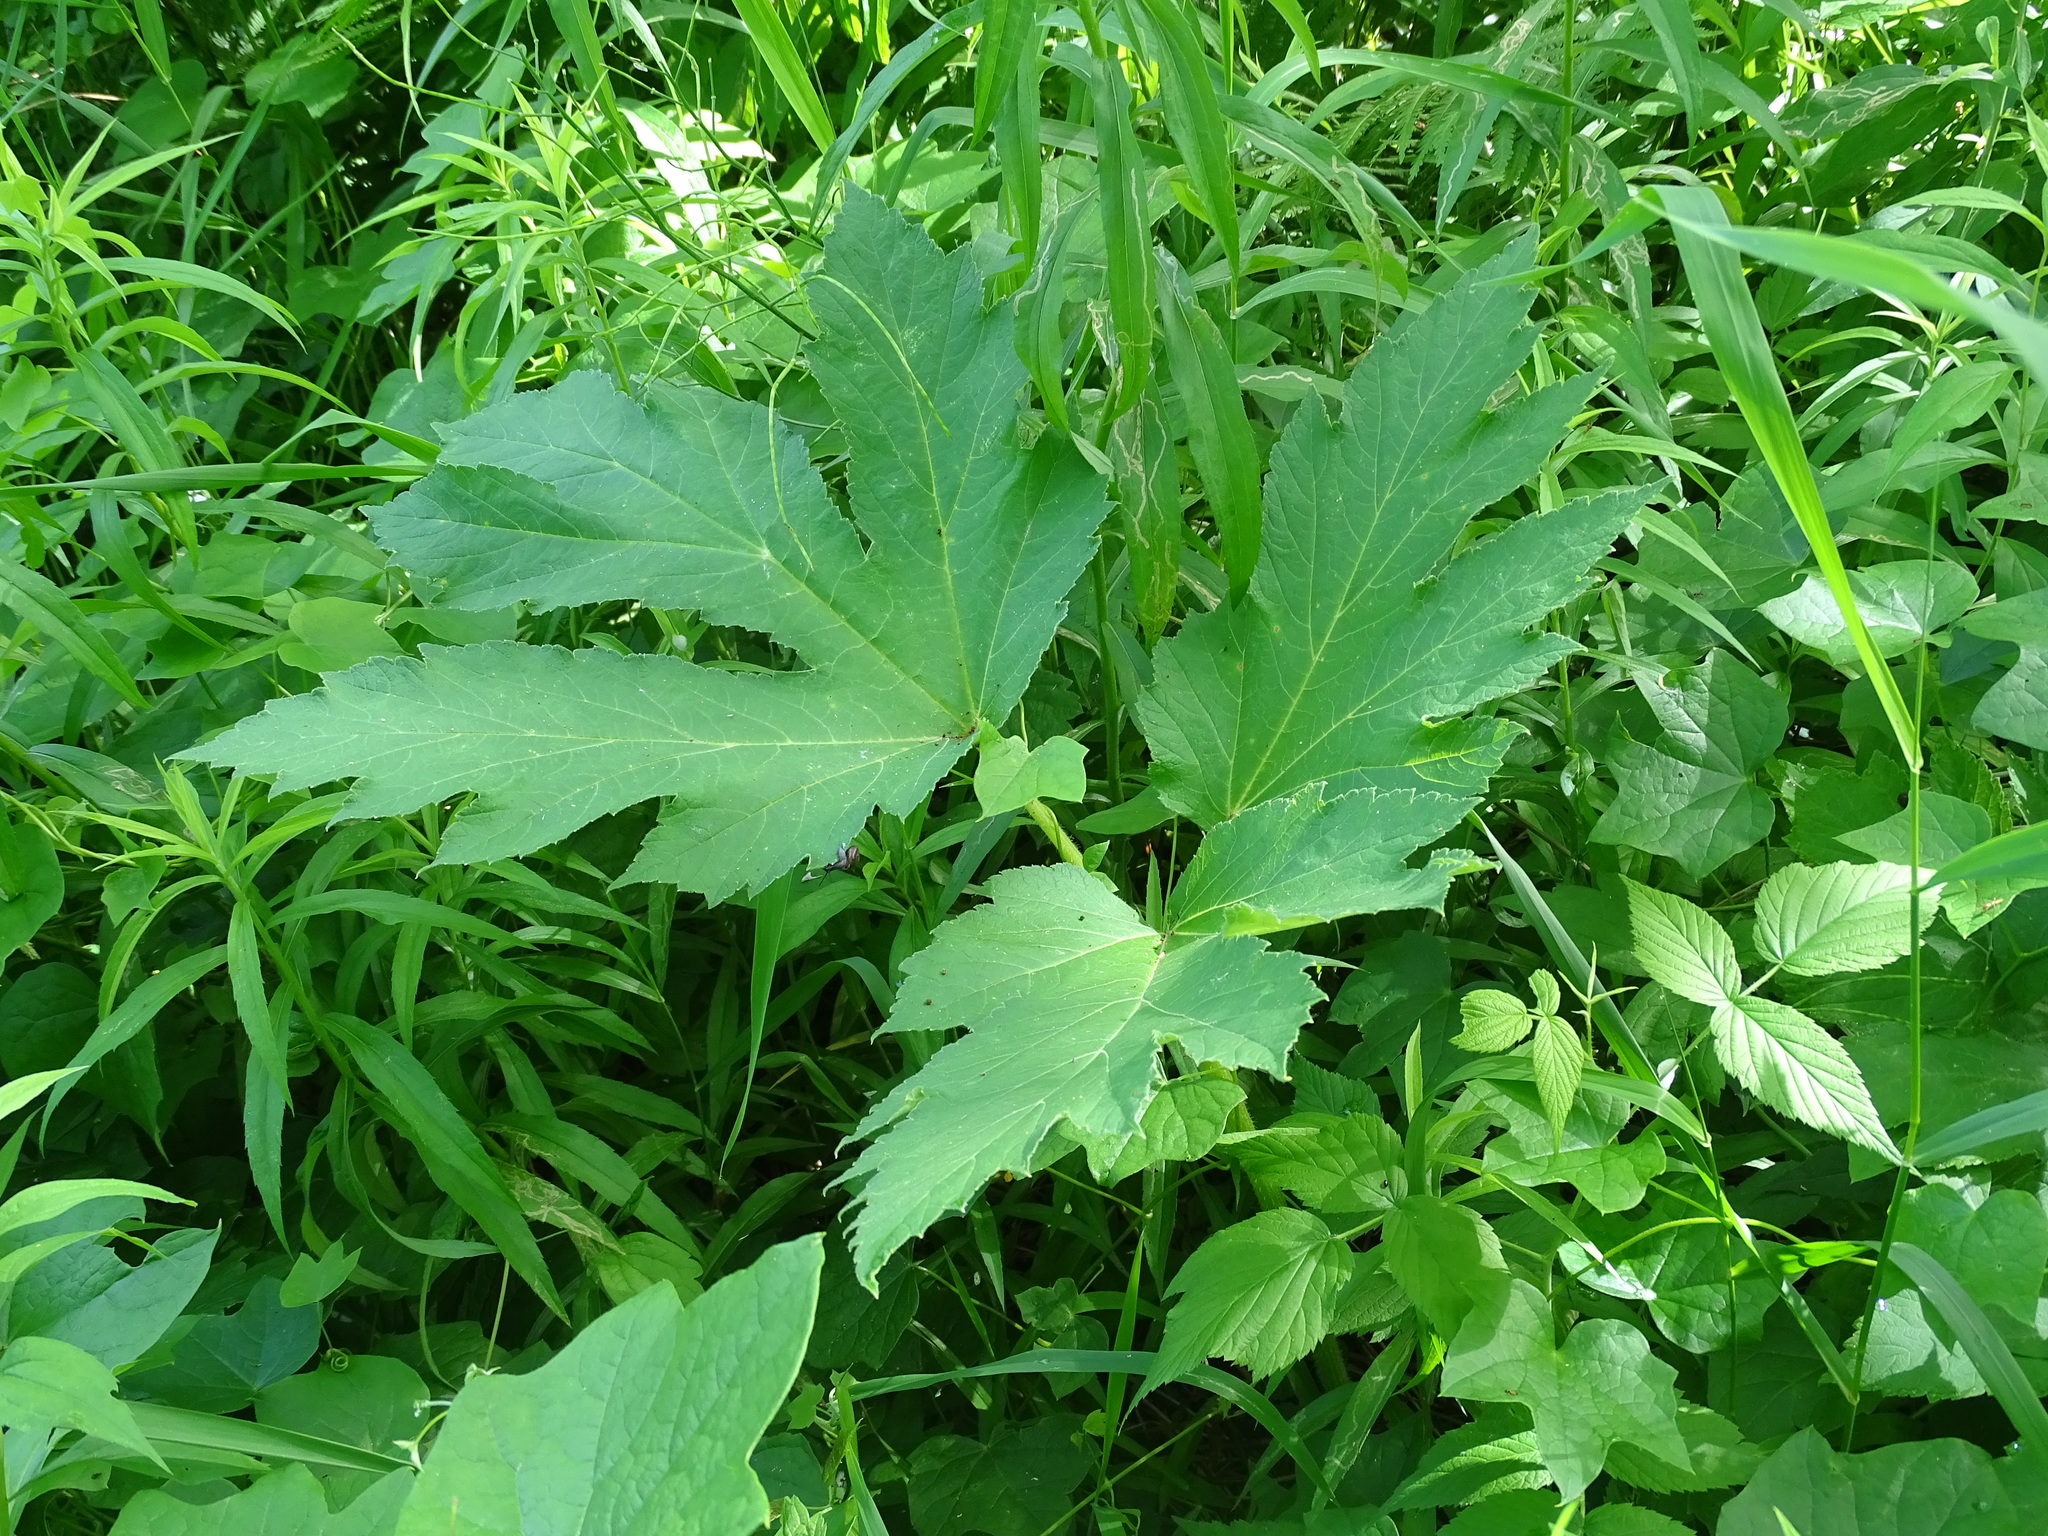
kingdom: Plantae
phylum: Tracheophyta
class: Magnoliopsida
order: Apiales
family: Apiaceae
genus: Heracleum
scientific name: Heracleum maximum
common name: American cow parsnip
